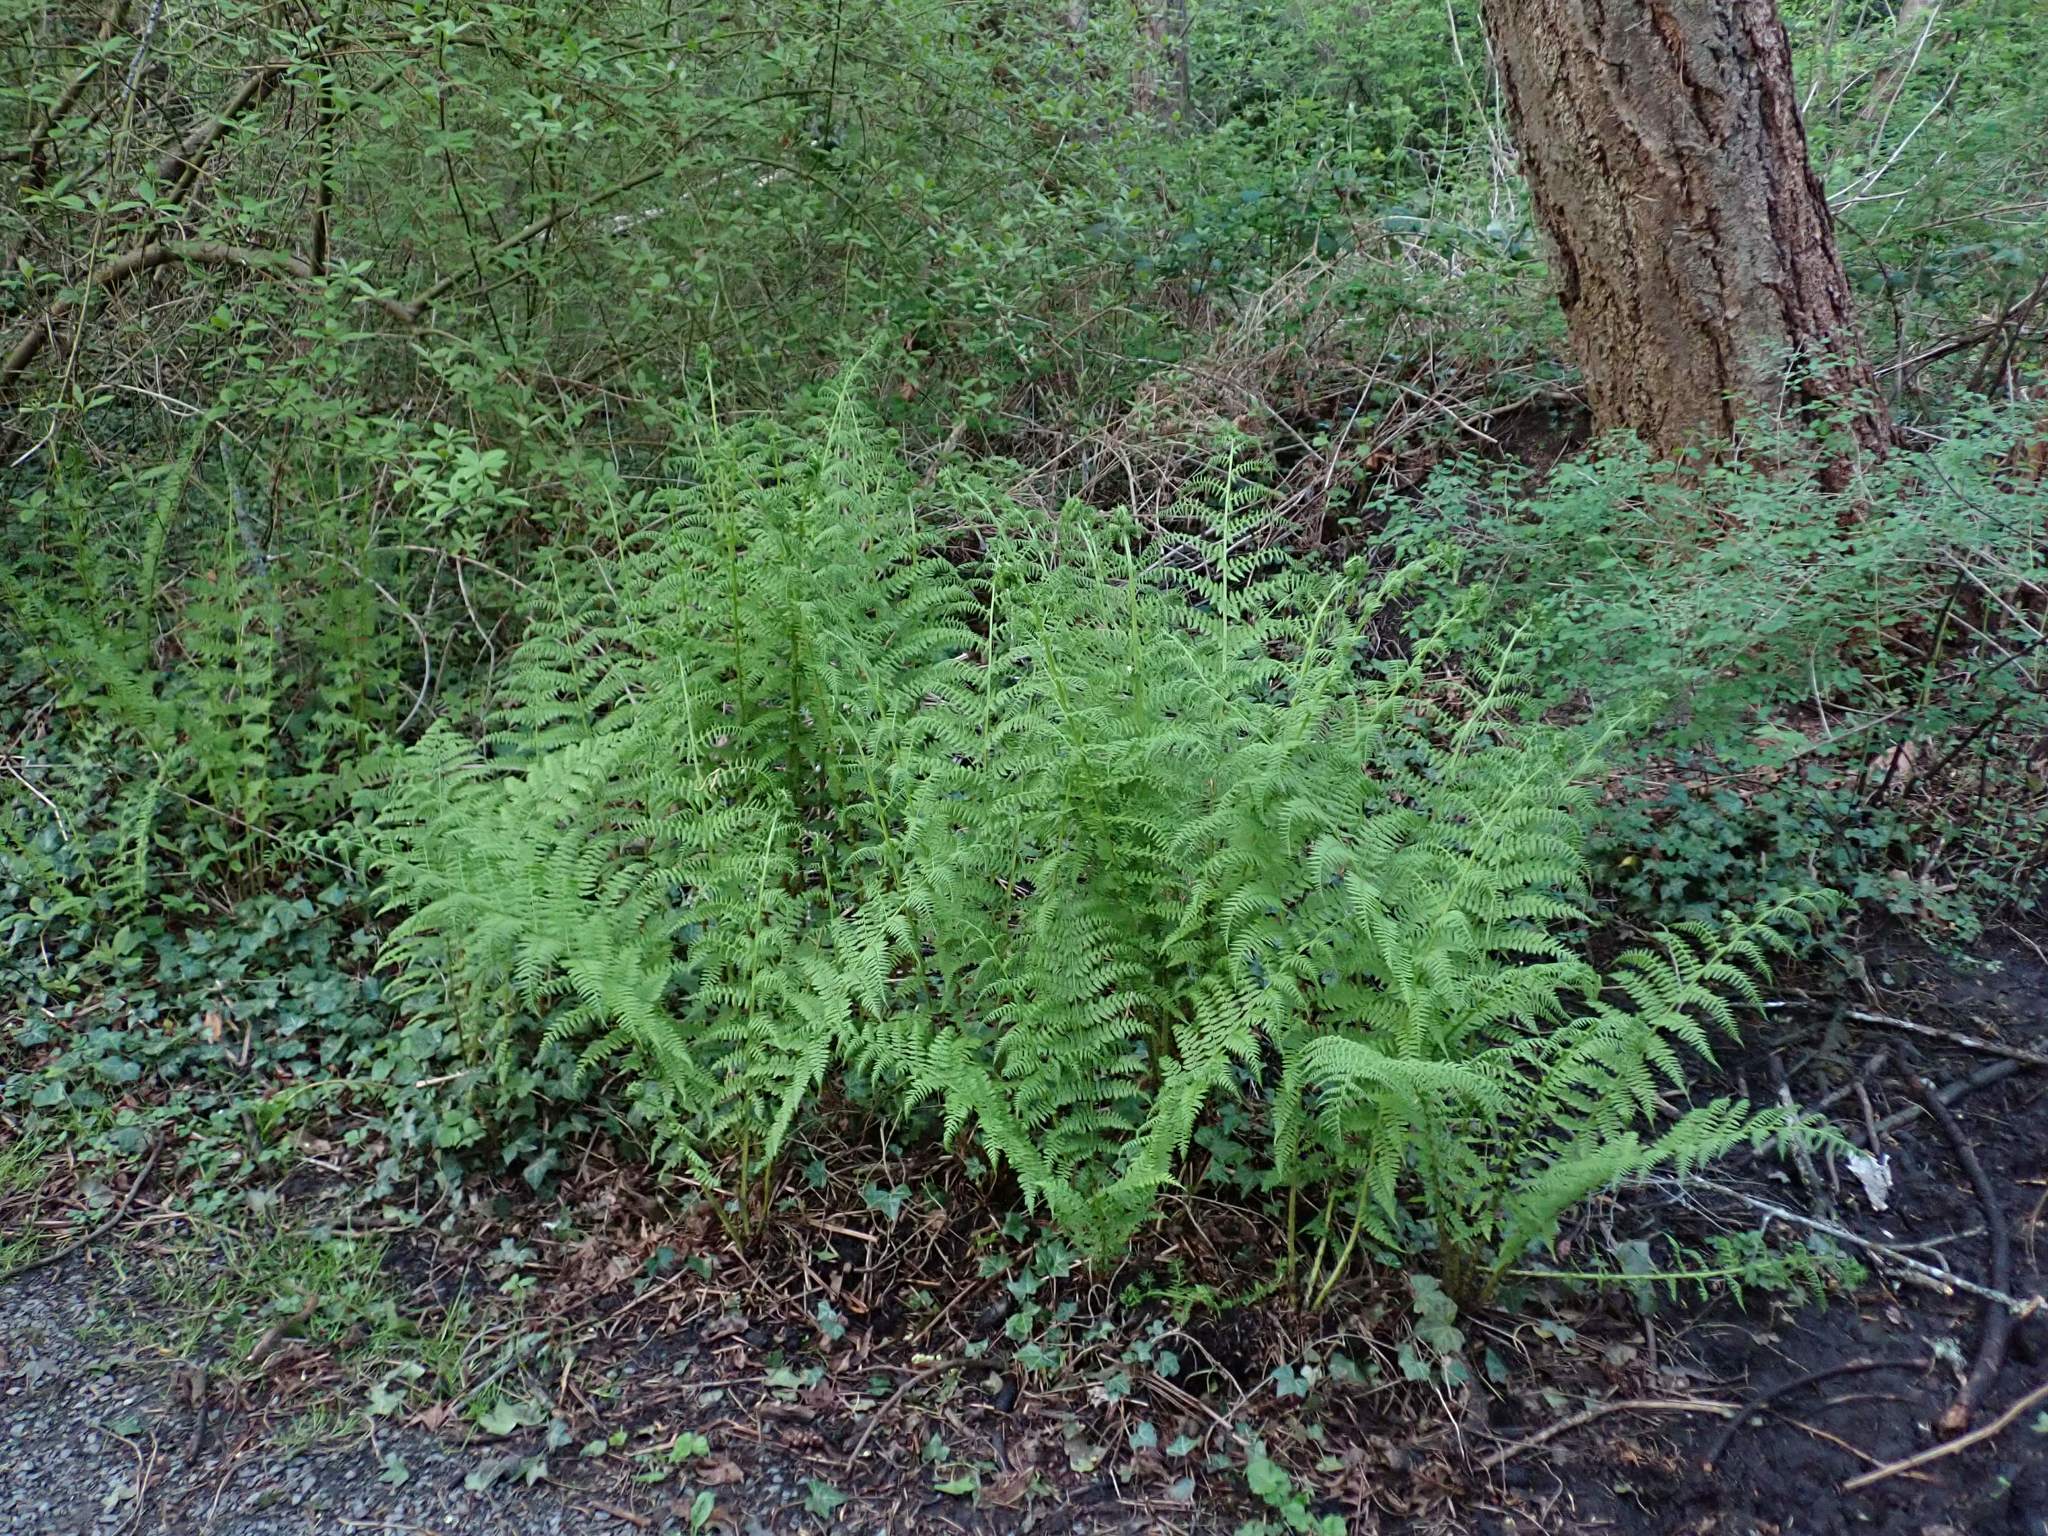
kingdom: Plantae
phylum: Tracheophyta
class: Polypodiopsida
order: Polypodiales
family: Athyriaceae
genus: Athyrium
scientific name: Athyrium filix-femina
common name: Lady fern
